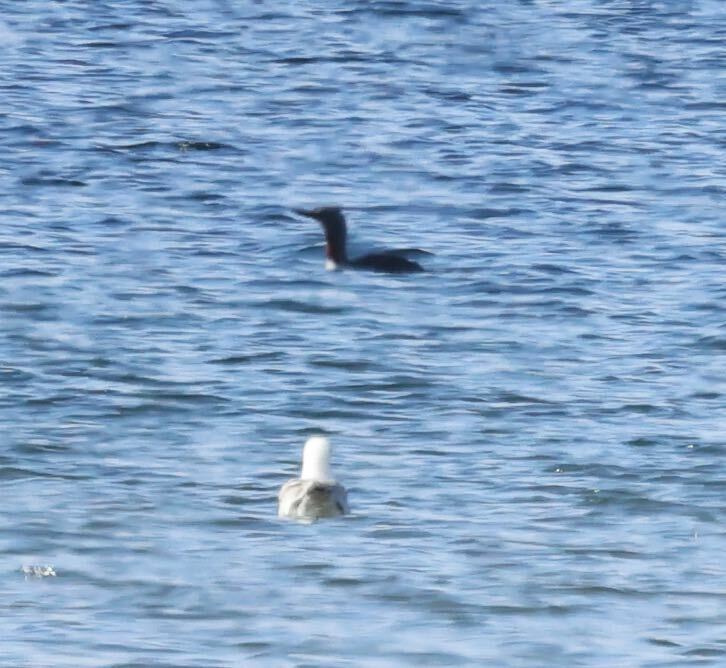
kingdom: Animalia
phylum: Chordata
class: Aves
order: Gaviiformes
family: Gaviidae
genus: Gavia
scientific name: Gavia stellata
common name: Red-throated loon
